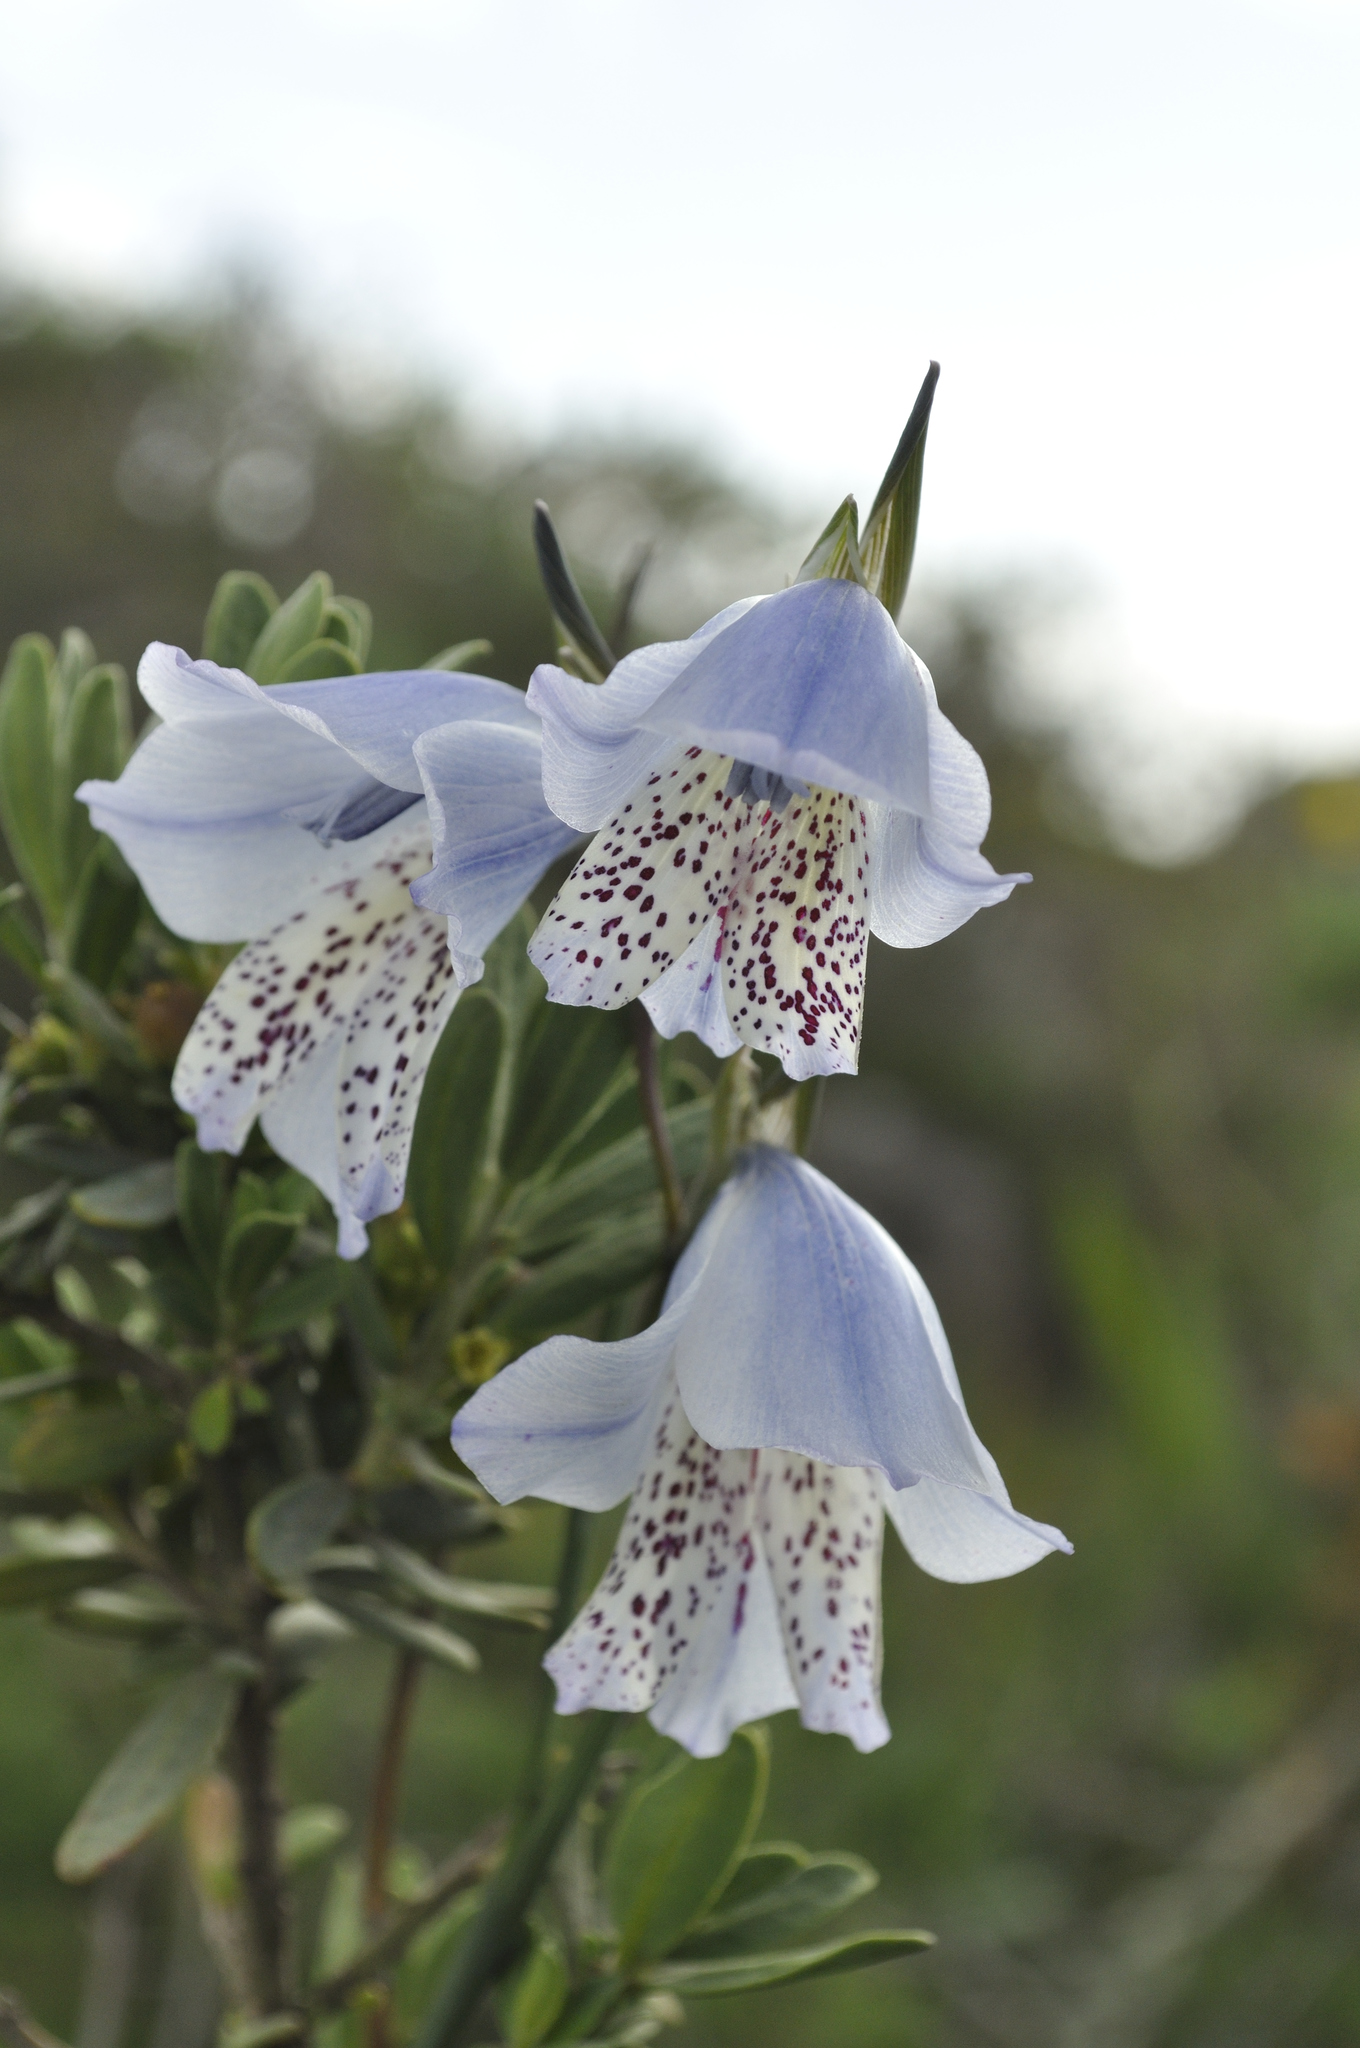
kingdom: Plantae
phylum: Tracheophyta
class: Liliopsida
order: Asparagales
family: Iridaceae
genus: Gladiolus
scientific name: Gladiolus caeruleus
